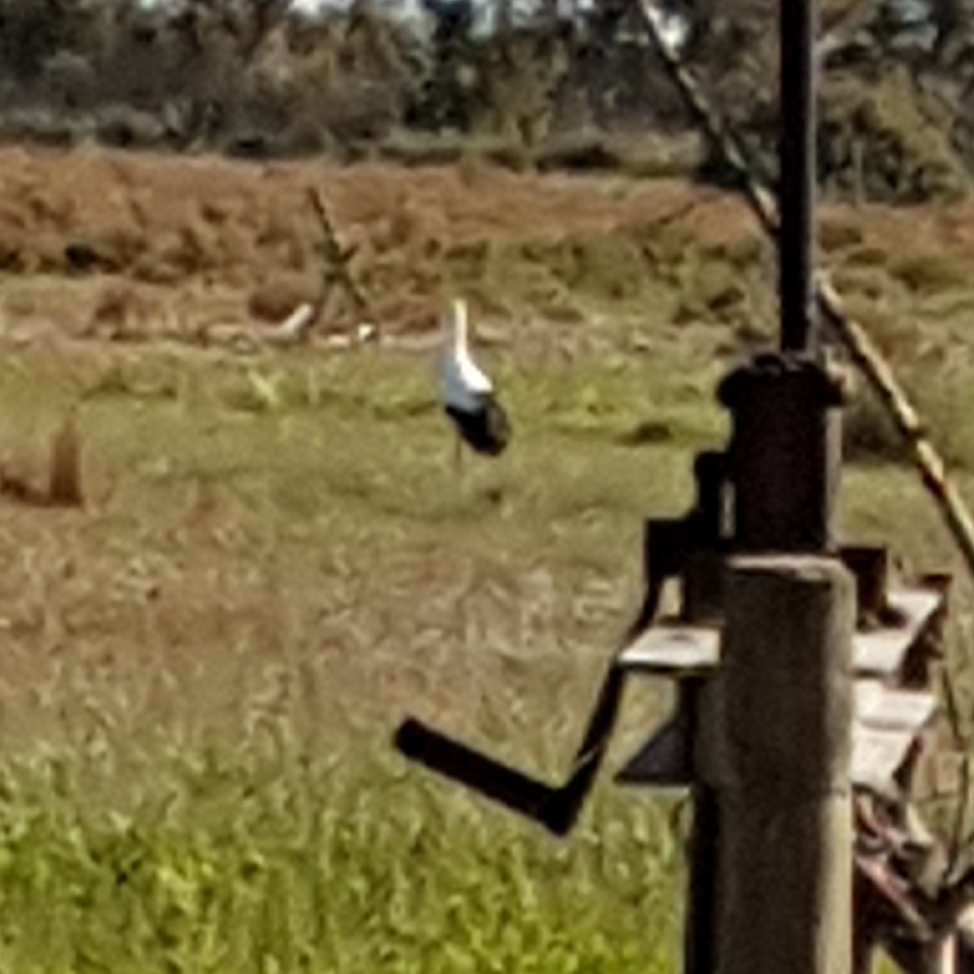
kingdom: Animalia
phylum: Chordata
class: Aves
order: Ciconiiformes
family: Ciconiidae
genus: Ciconia
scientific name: Ciconia ciconia
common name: White stork
